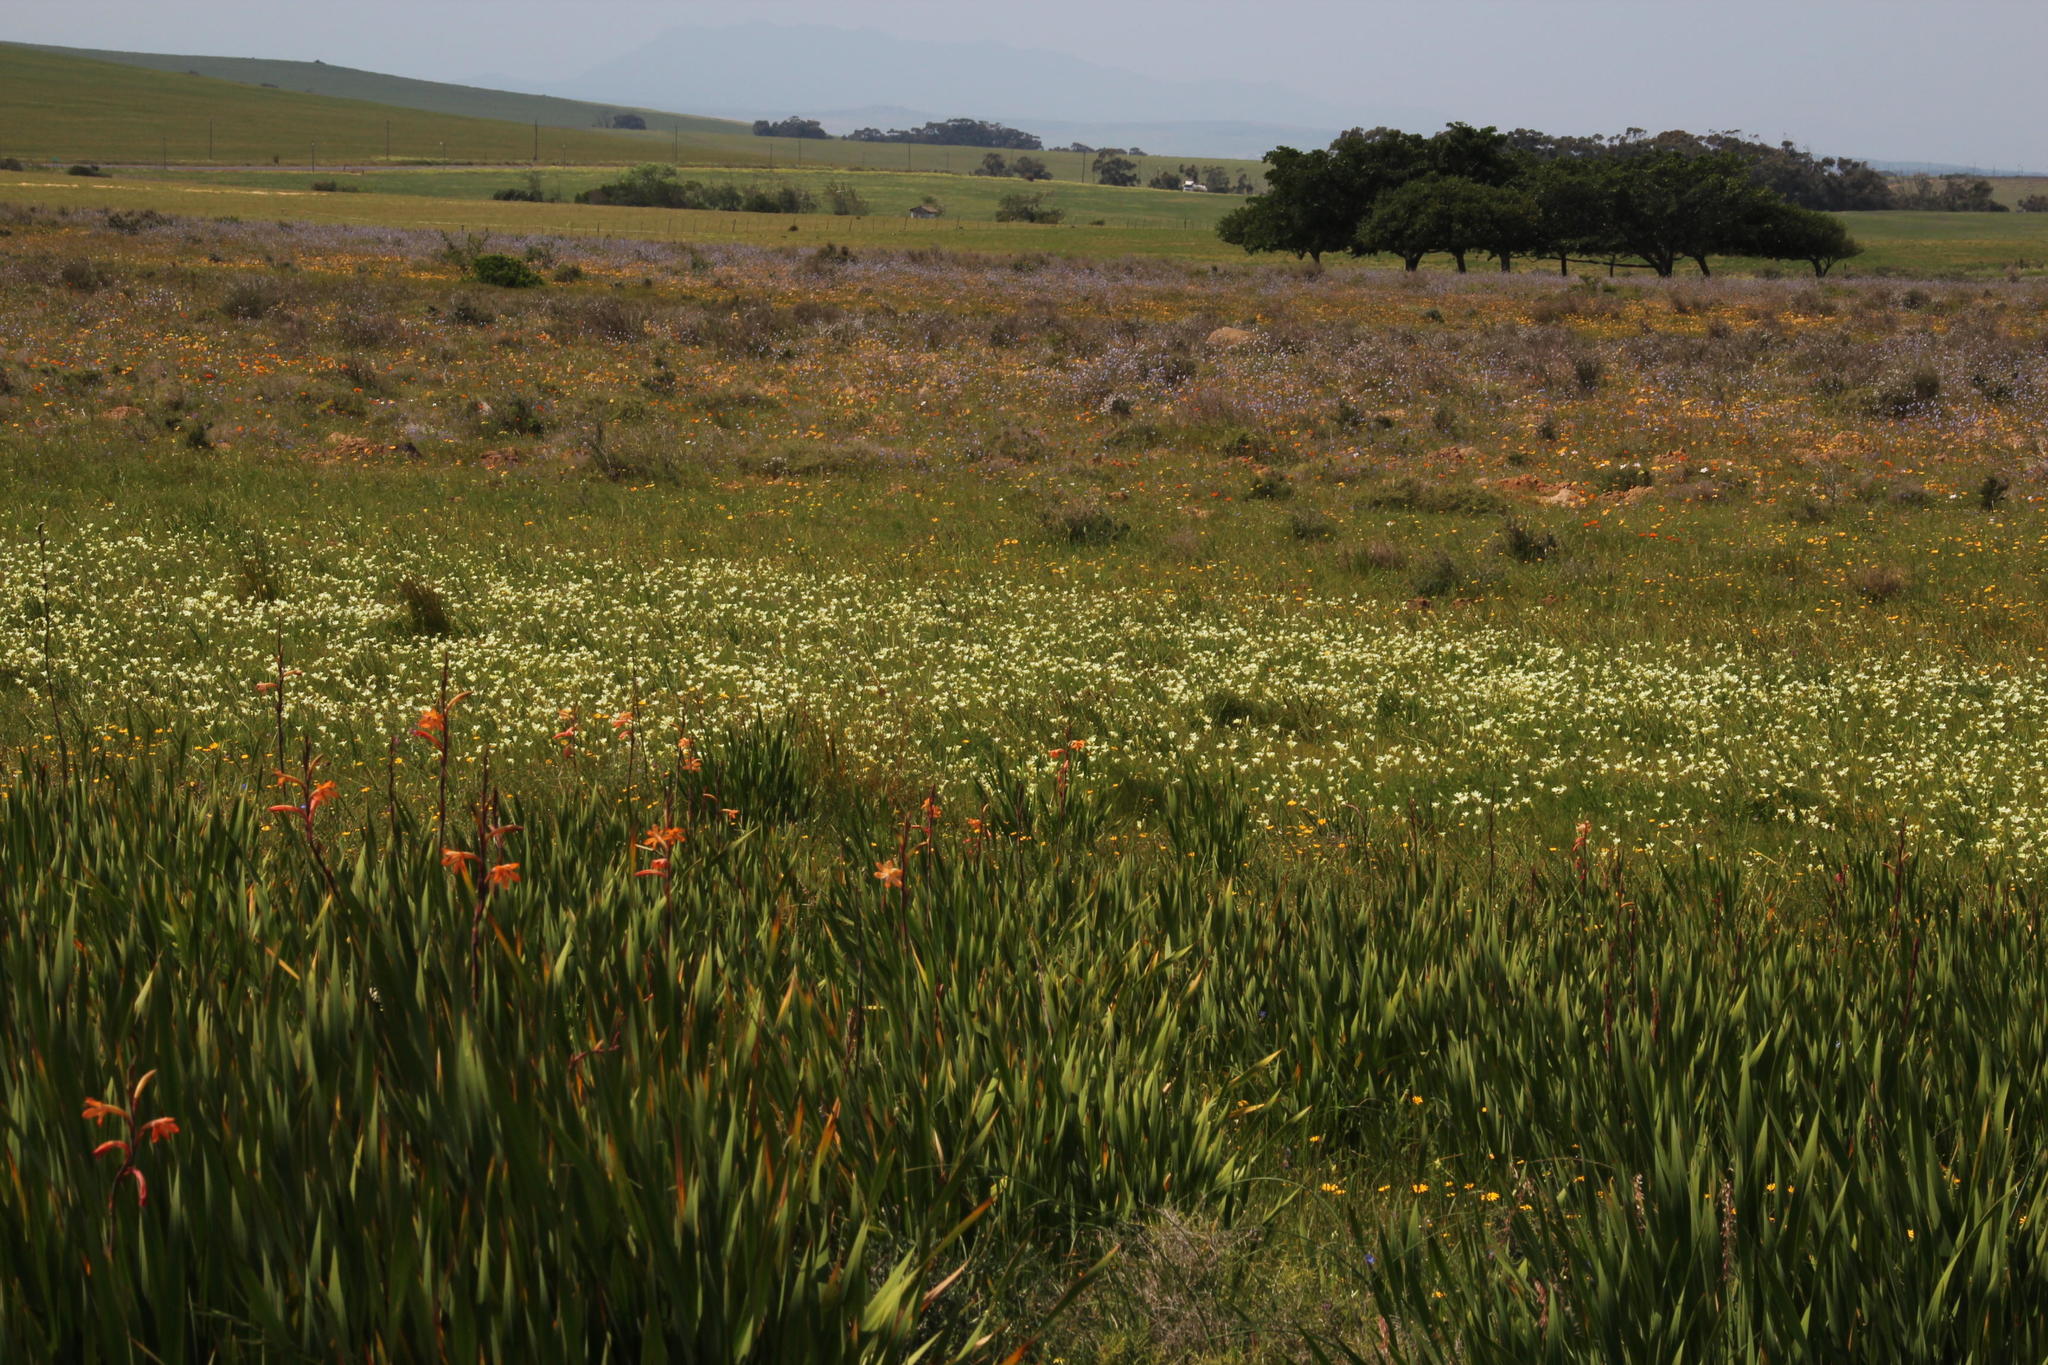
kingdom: Plantae
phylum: Tracheophyta
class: Liliopsida
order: Asparagales
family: Iridaceae
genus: Sparaxis
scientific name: Sparaxis bulbifera
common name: Harlequin-flower
